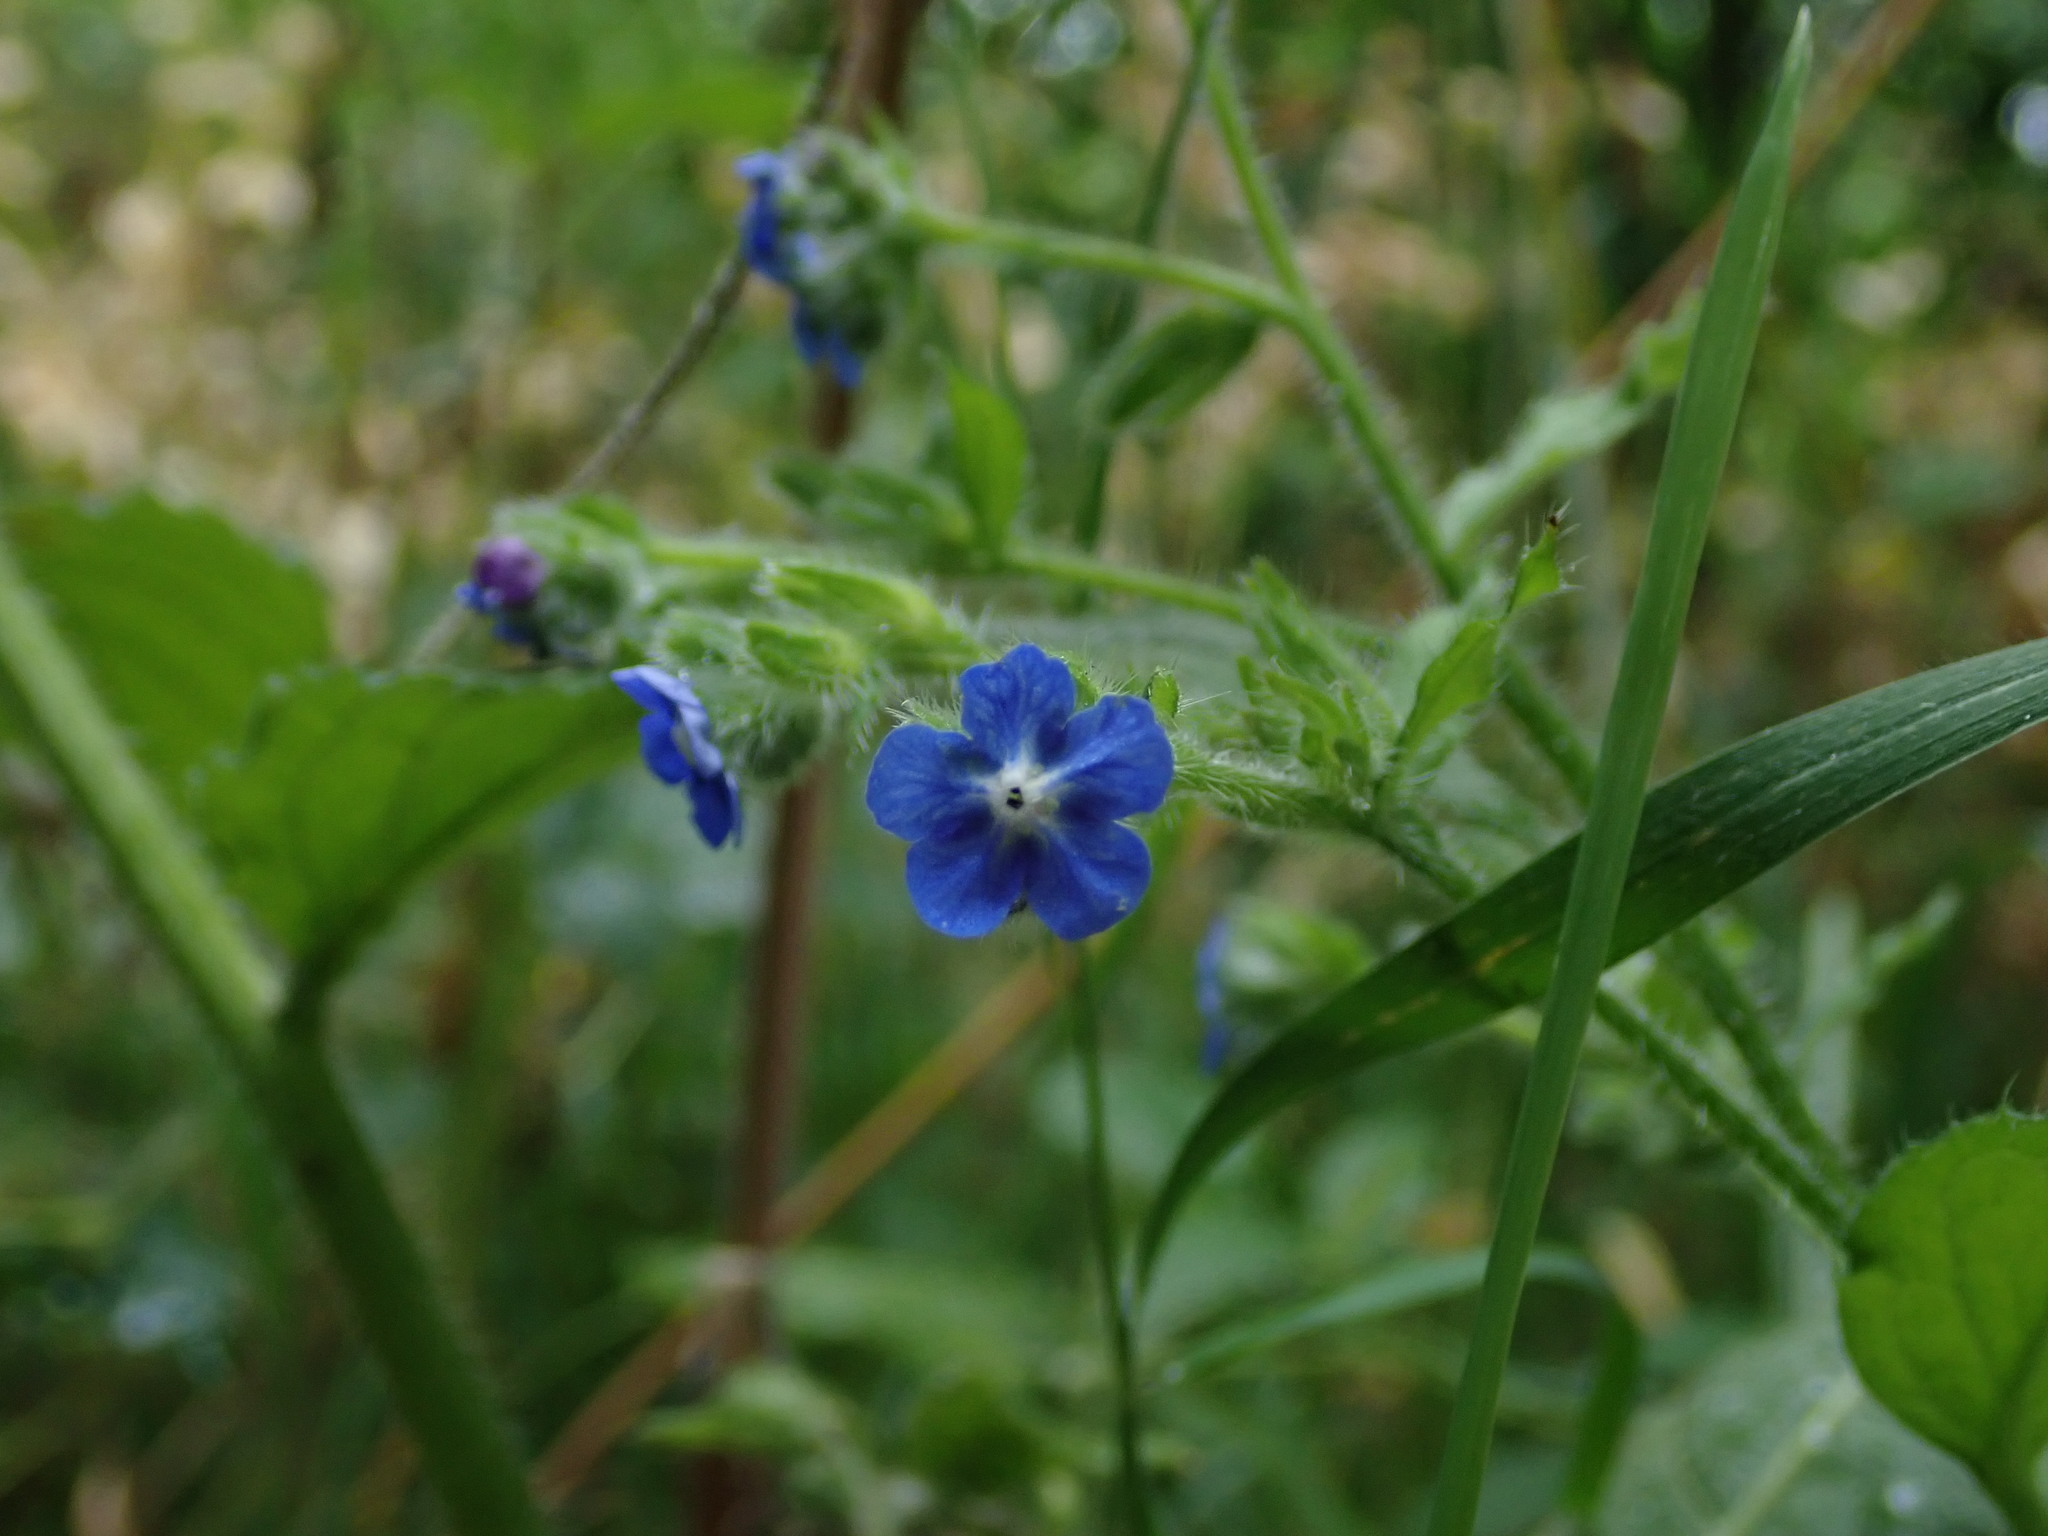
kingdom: Plantae
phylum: Tracheophyta
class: Magnoliopsida
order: Boraginales
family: Boraginaceae
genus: Pentaglottis
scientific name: Pentaglottis sempervirens
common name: Green alkanet
